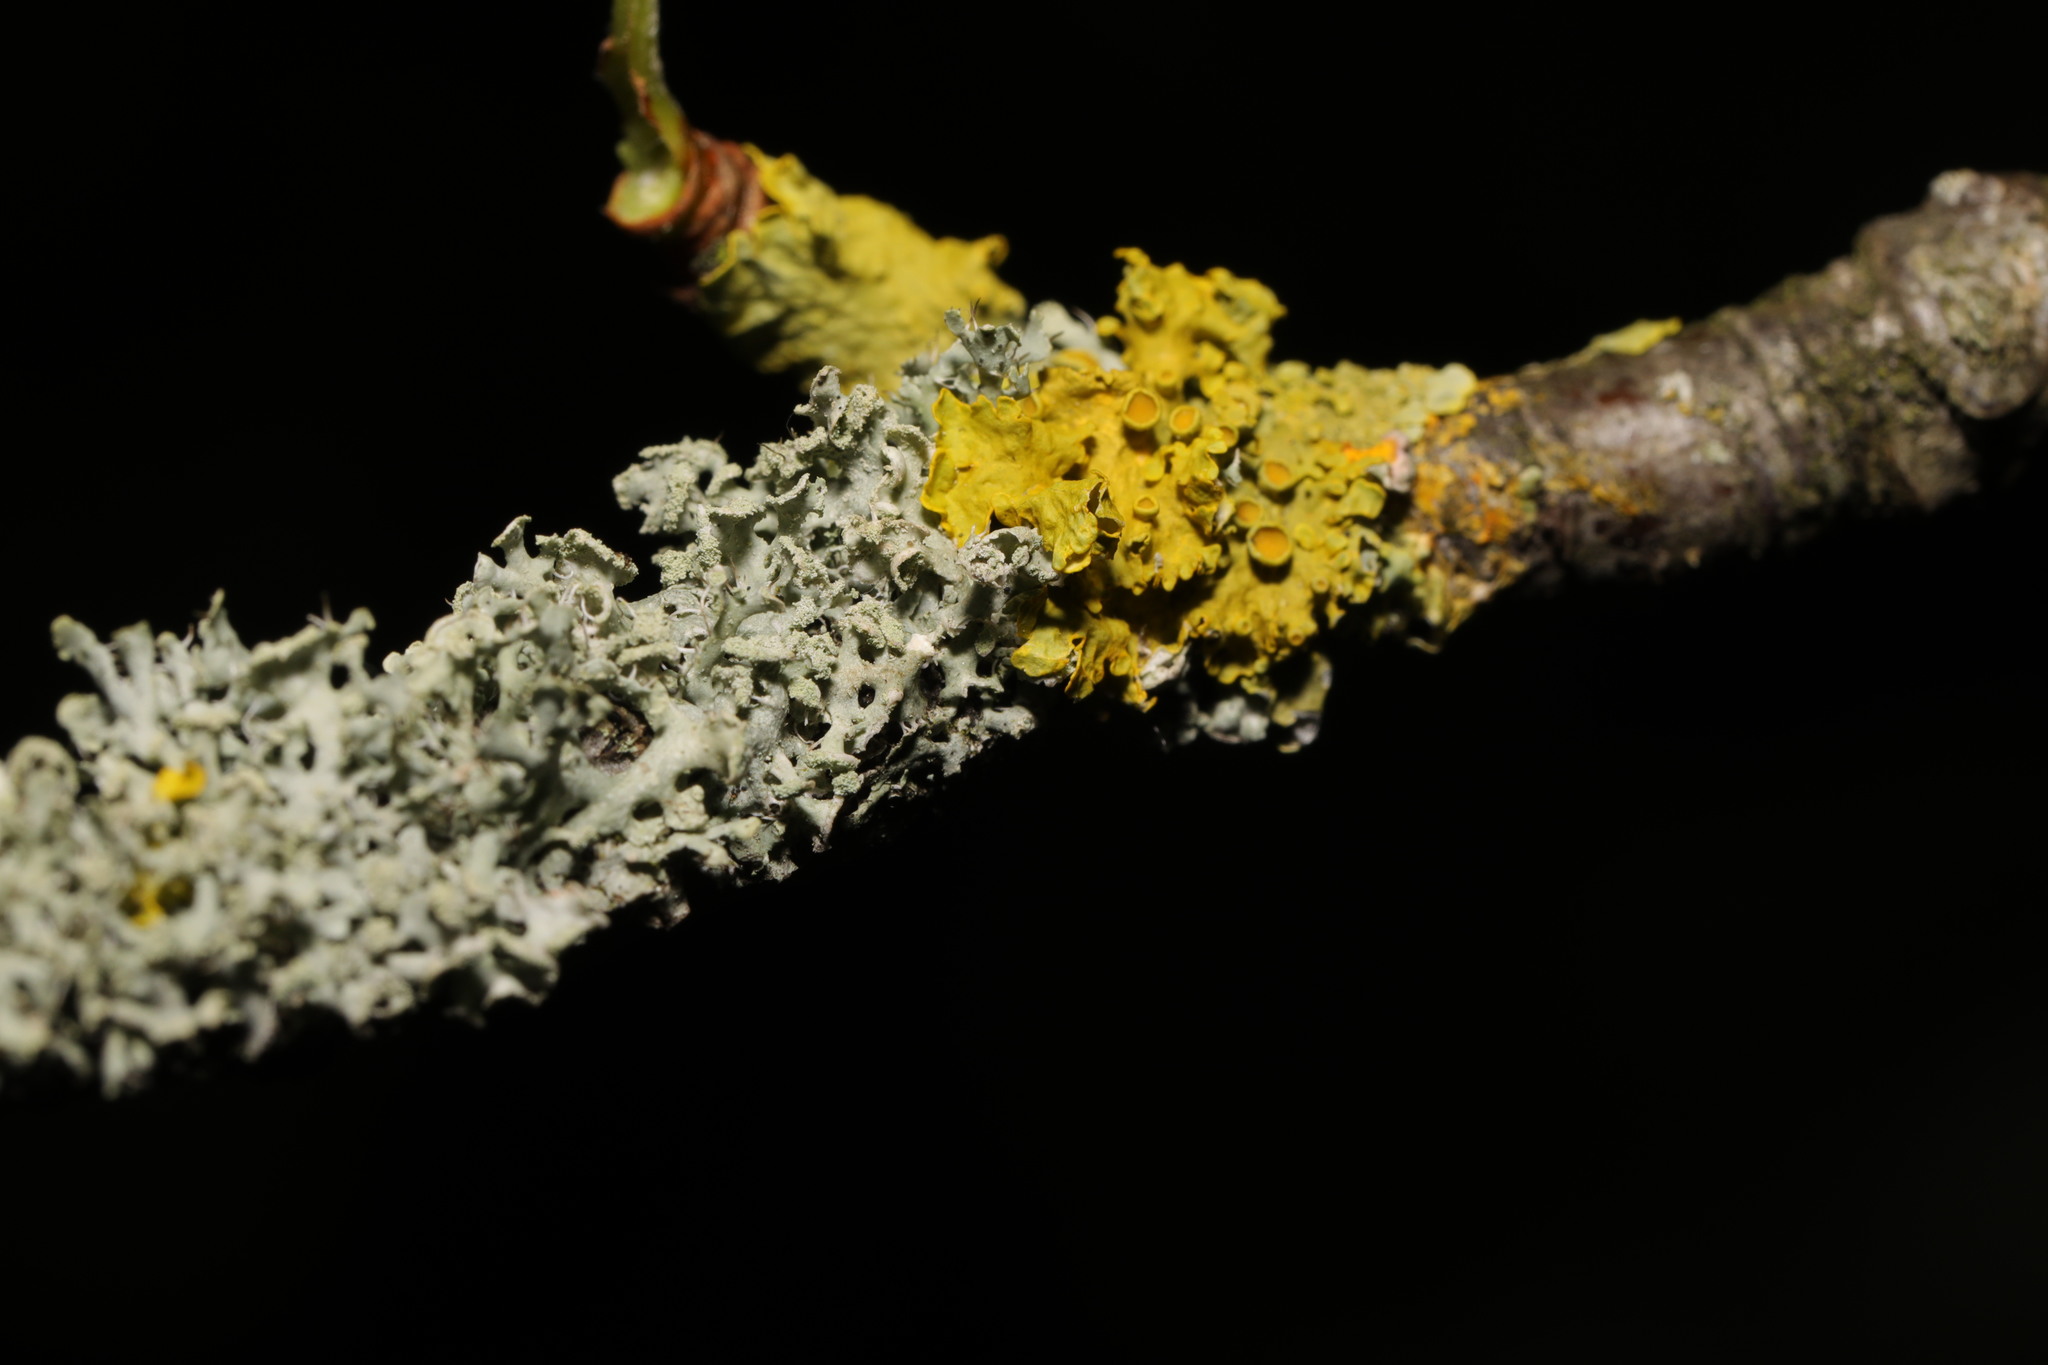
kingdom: Fungi
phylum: Ascomycota
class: Lecanoromycetes
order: Caliciales
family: Physciaceae
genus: Physcia
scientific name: Physcia tenella
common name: Fringed rosette lichen
